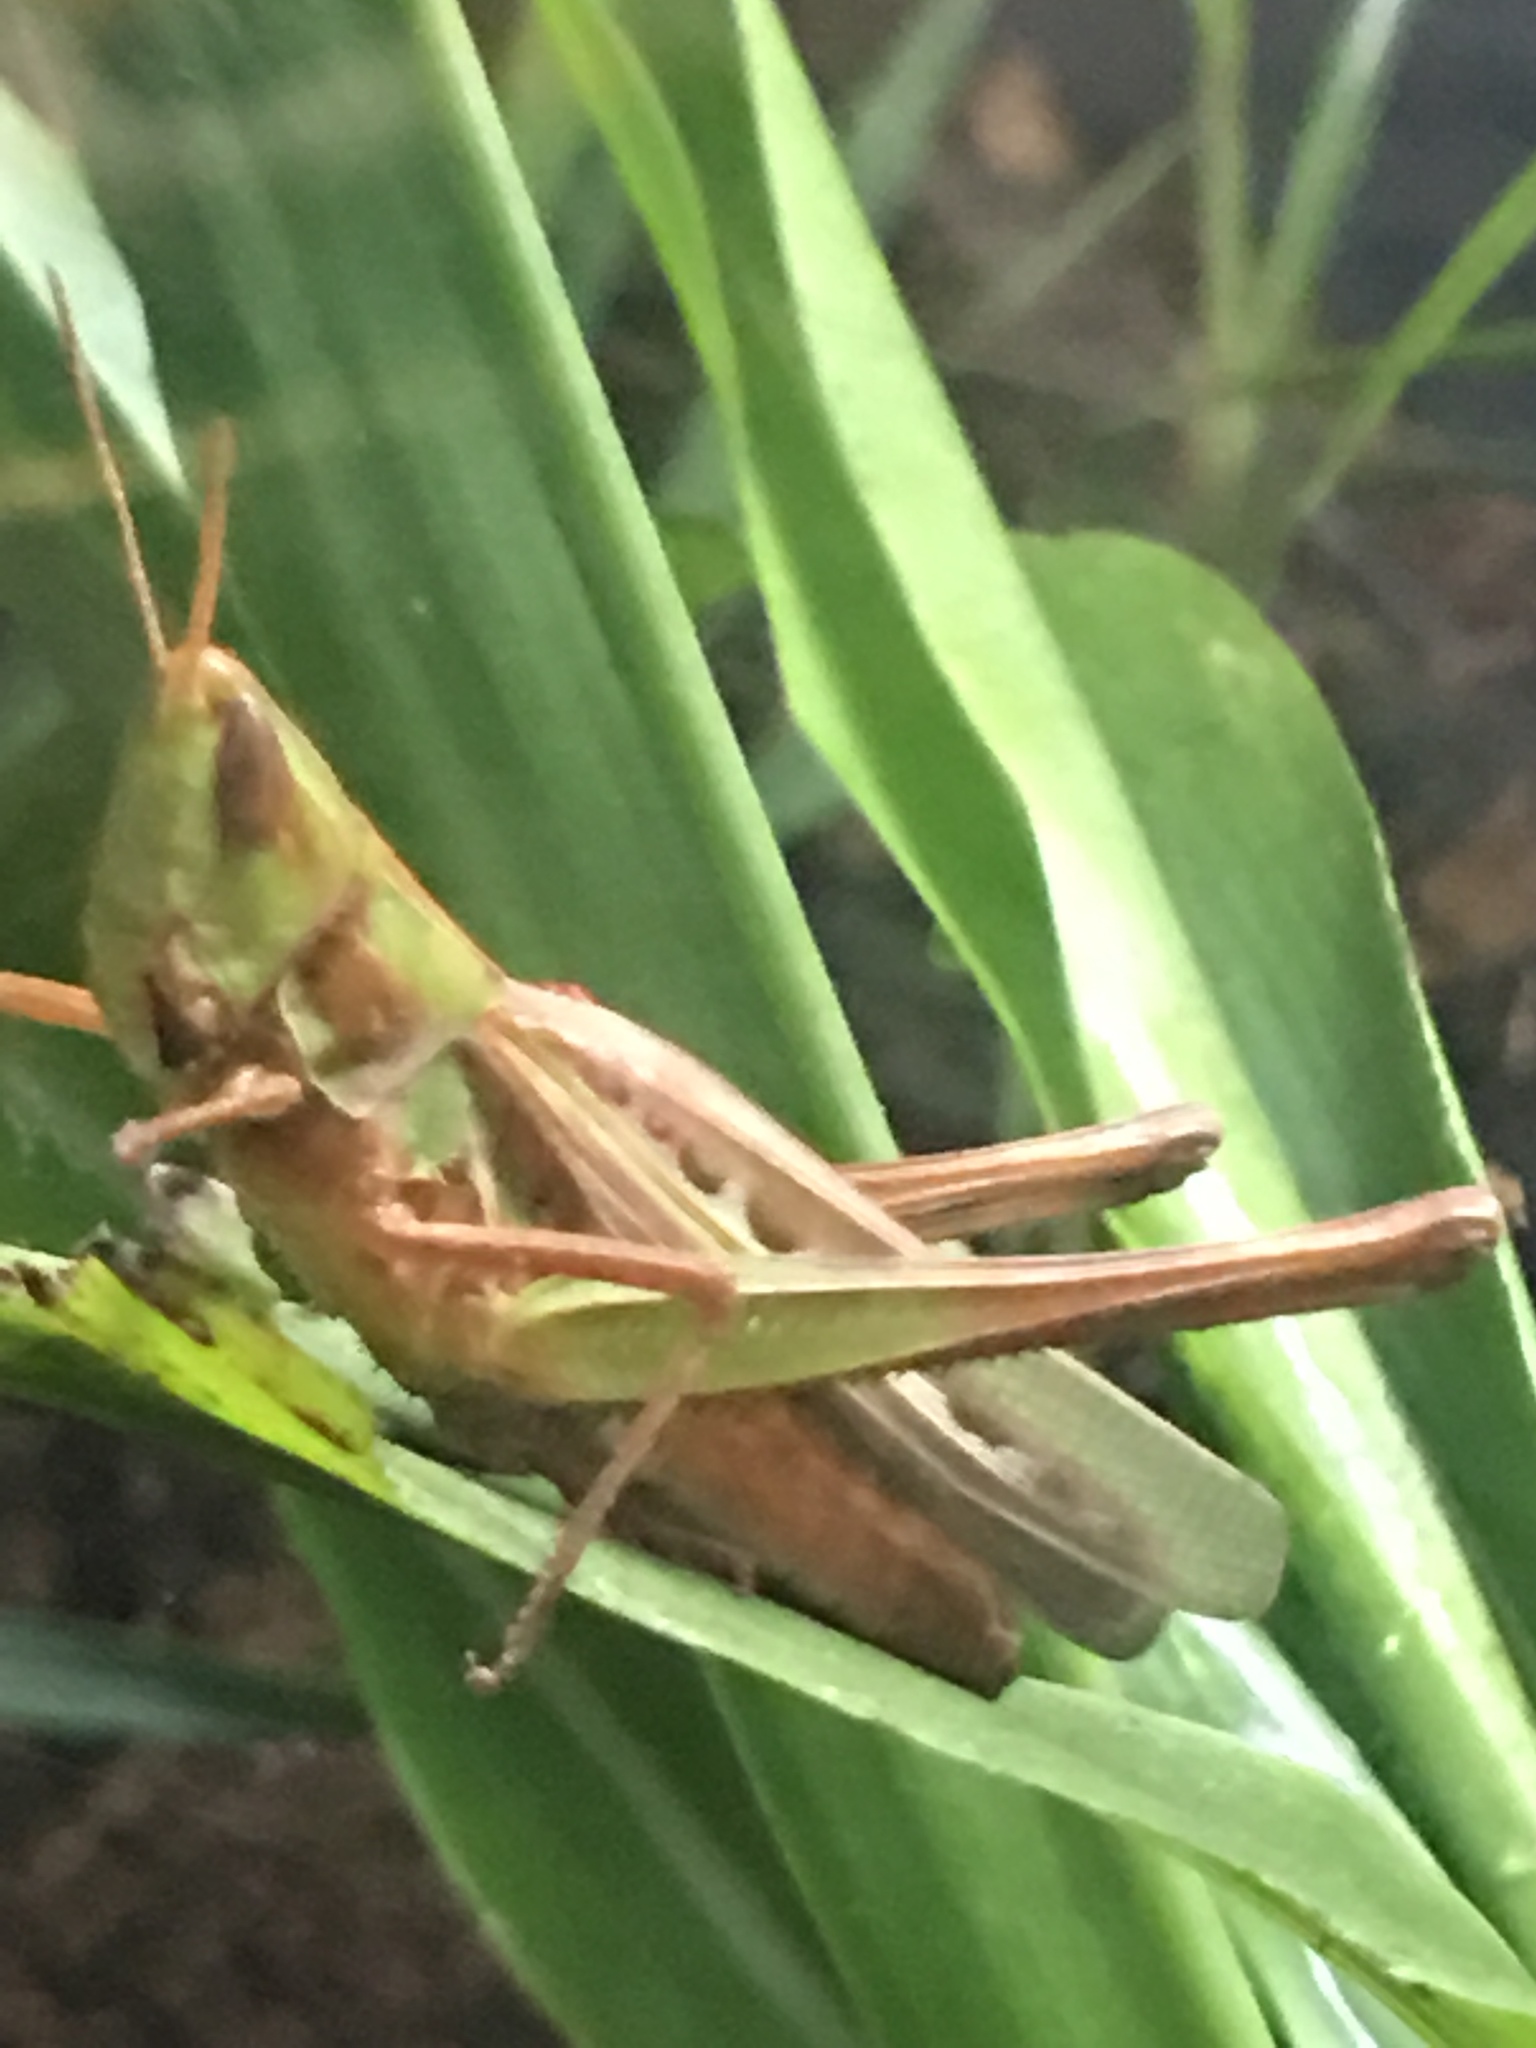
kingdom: Animalia
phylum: Arthropoda
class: Insecta
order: Orthoptera
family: Acrididae
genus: Syrbula
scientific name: Syrbula admirabilis
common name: Handsome grasshopper
